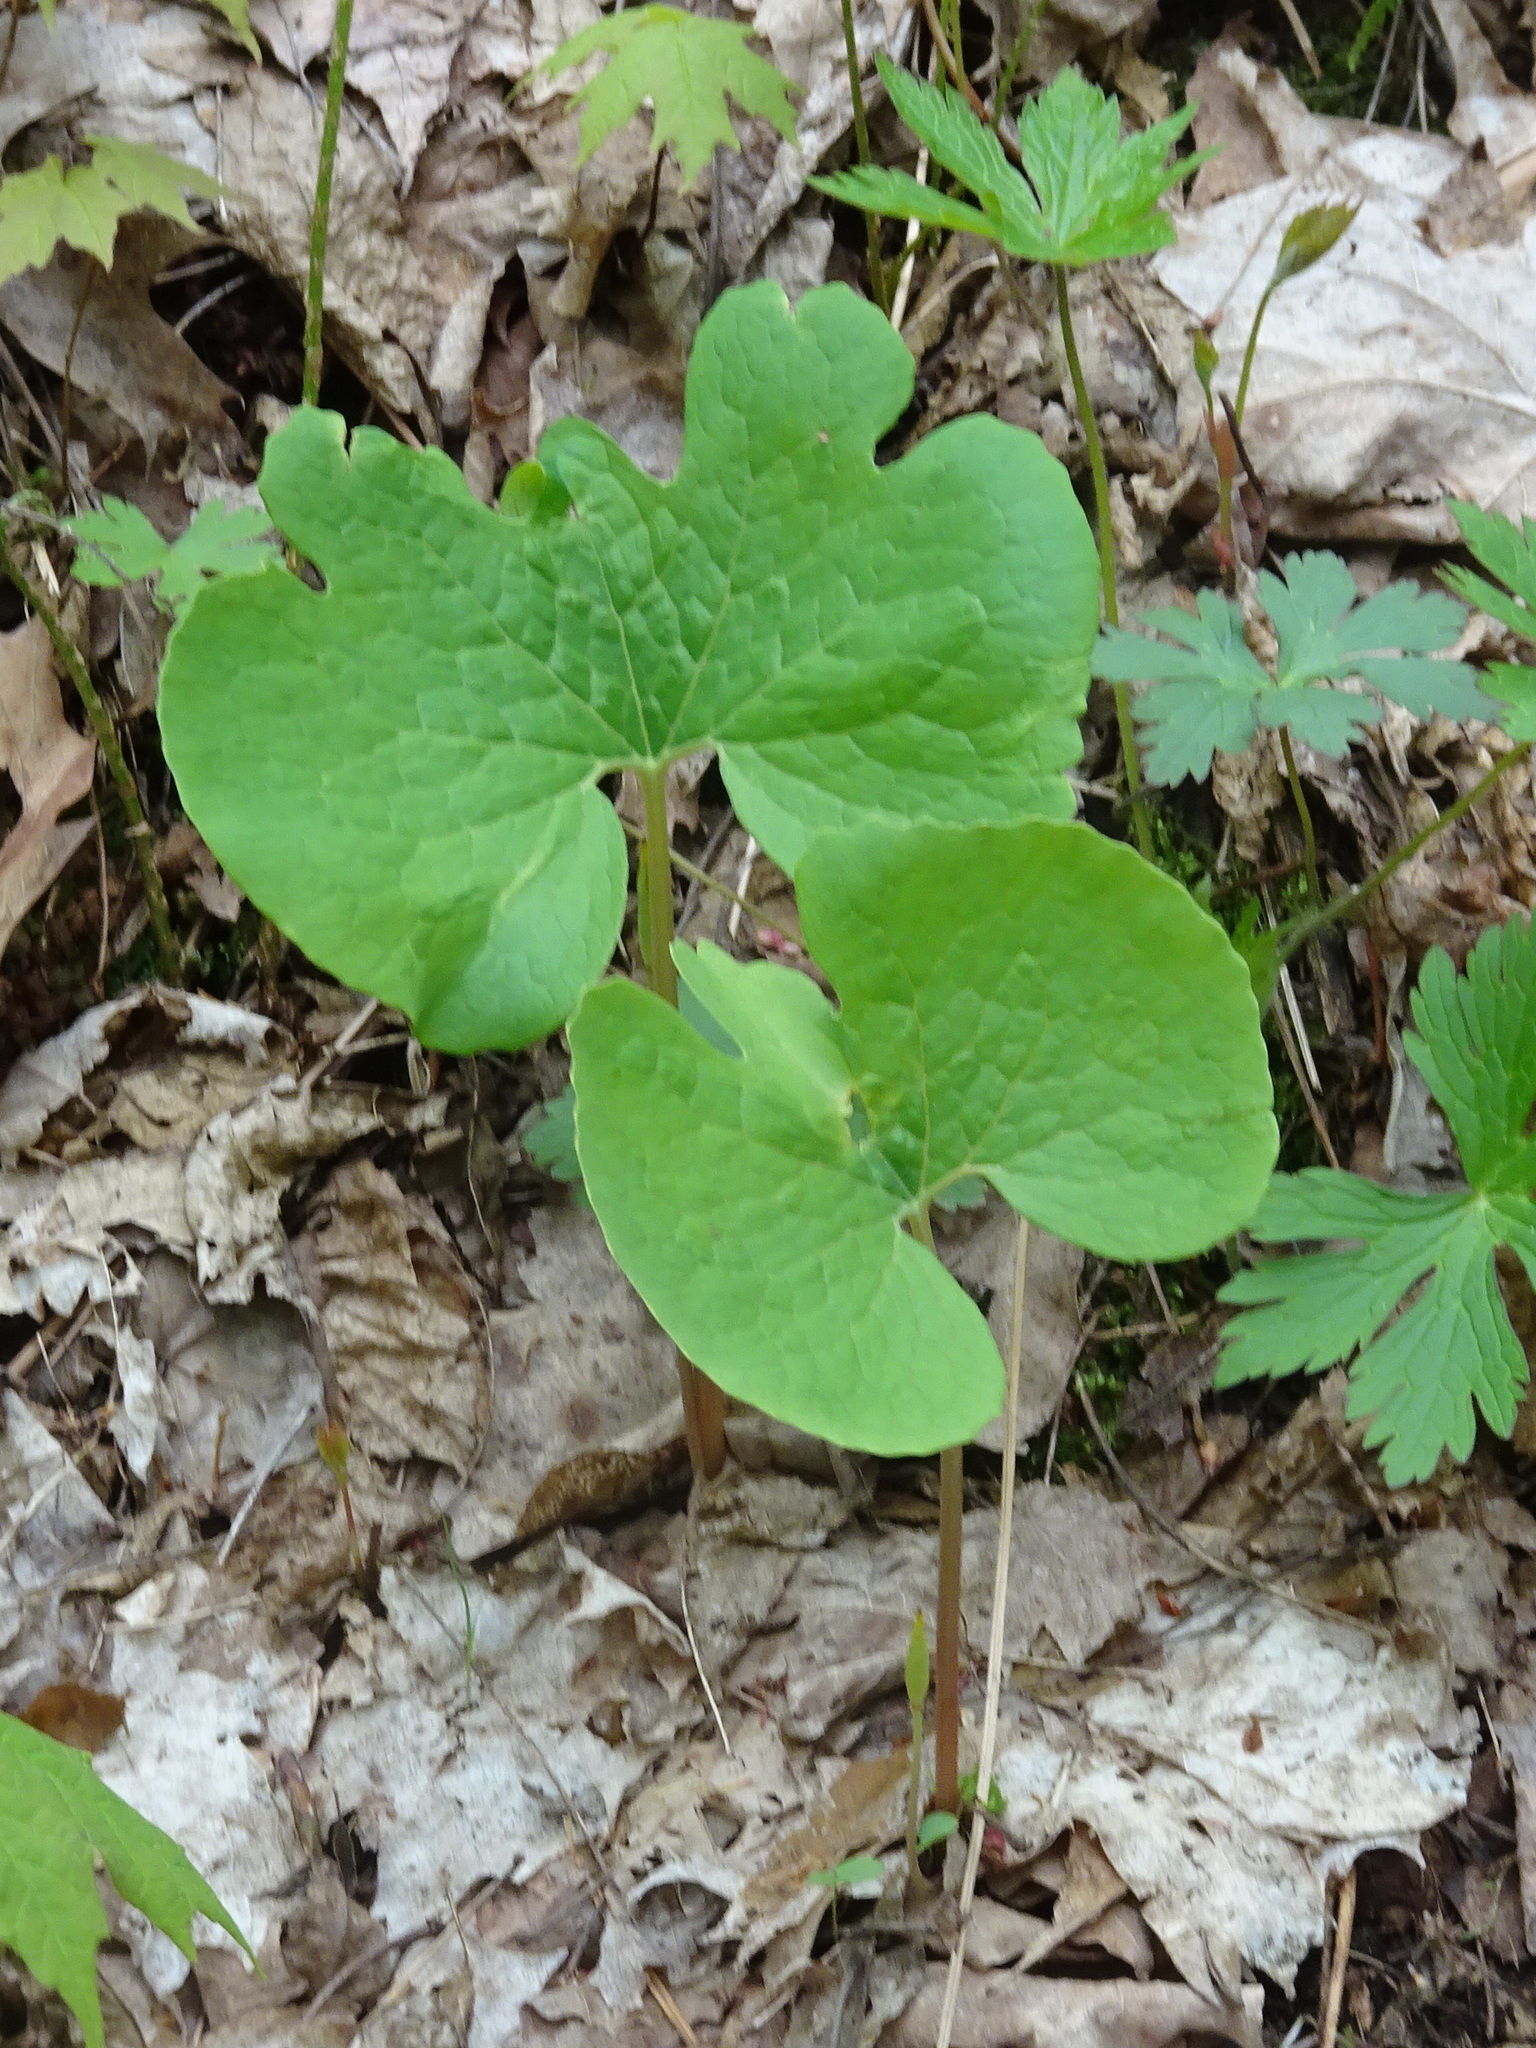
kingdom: Plantae
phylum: Tracheophyta
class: Magnoliopsida
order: Ranunculales
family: Papaveraceae
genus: Sanguinaria
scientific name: Sanguinaria canadensis
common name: Bloodroot
